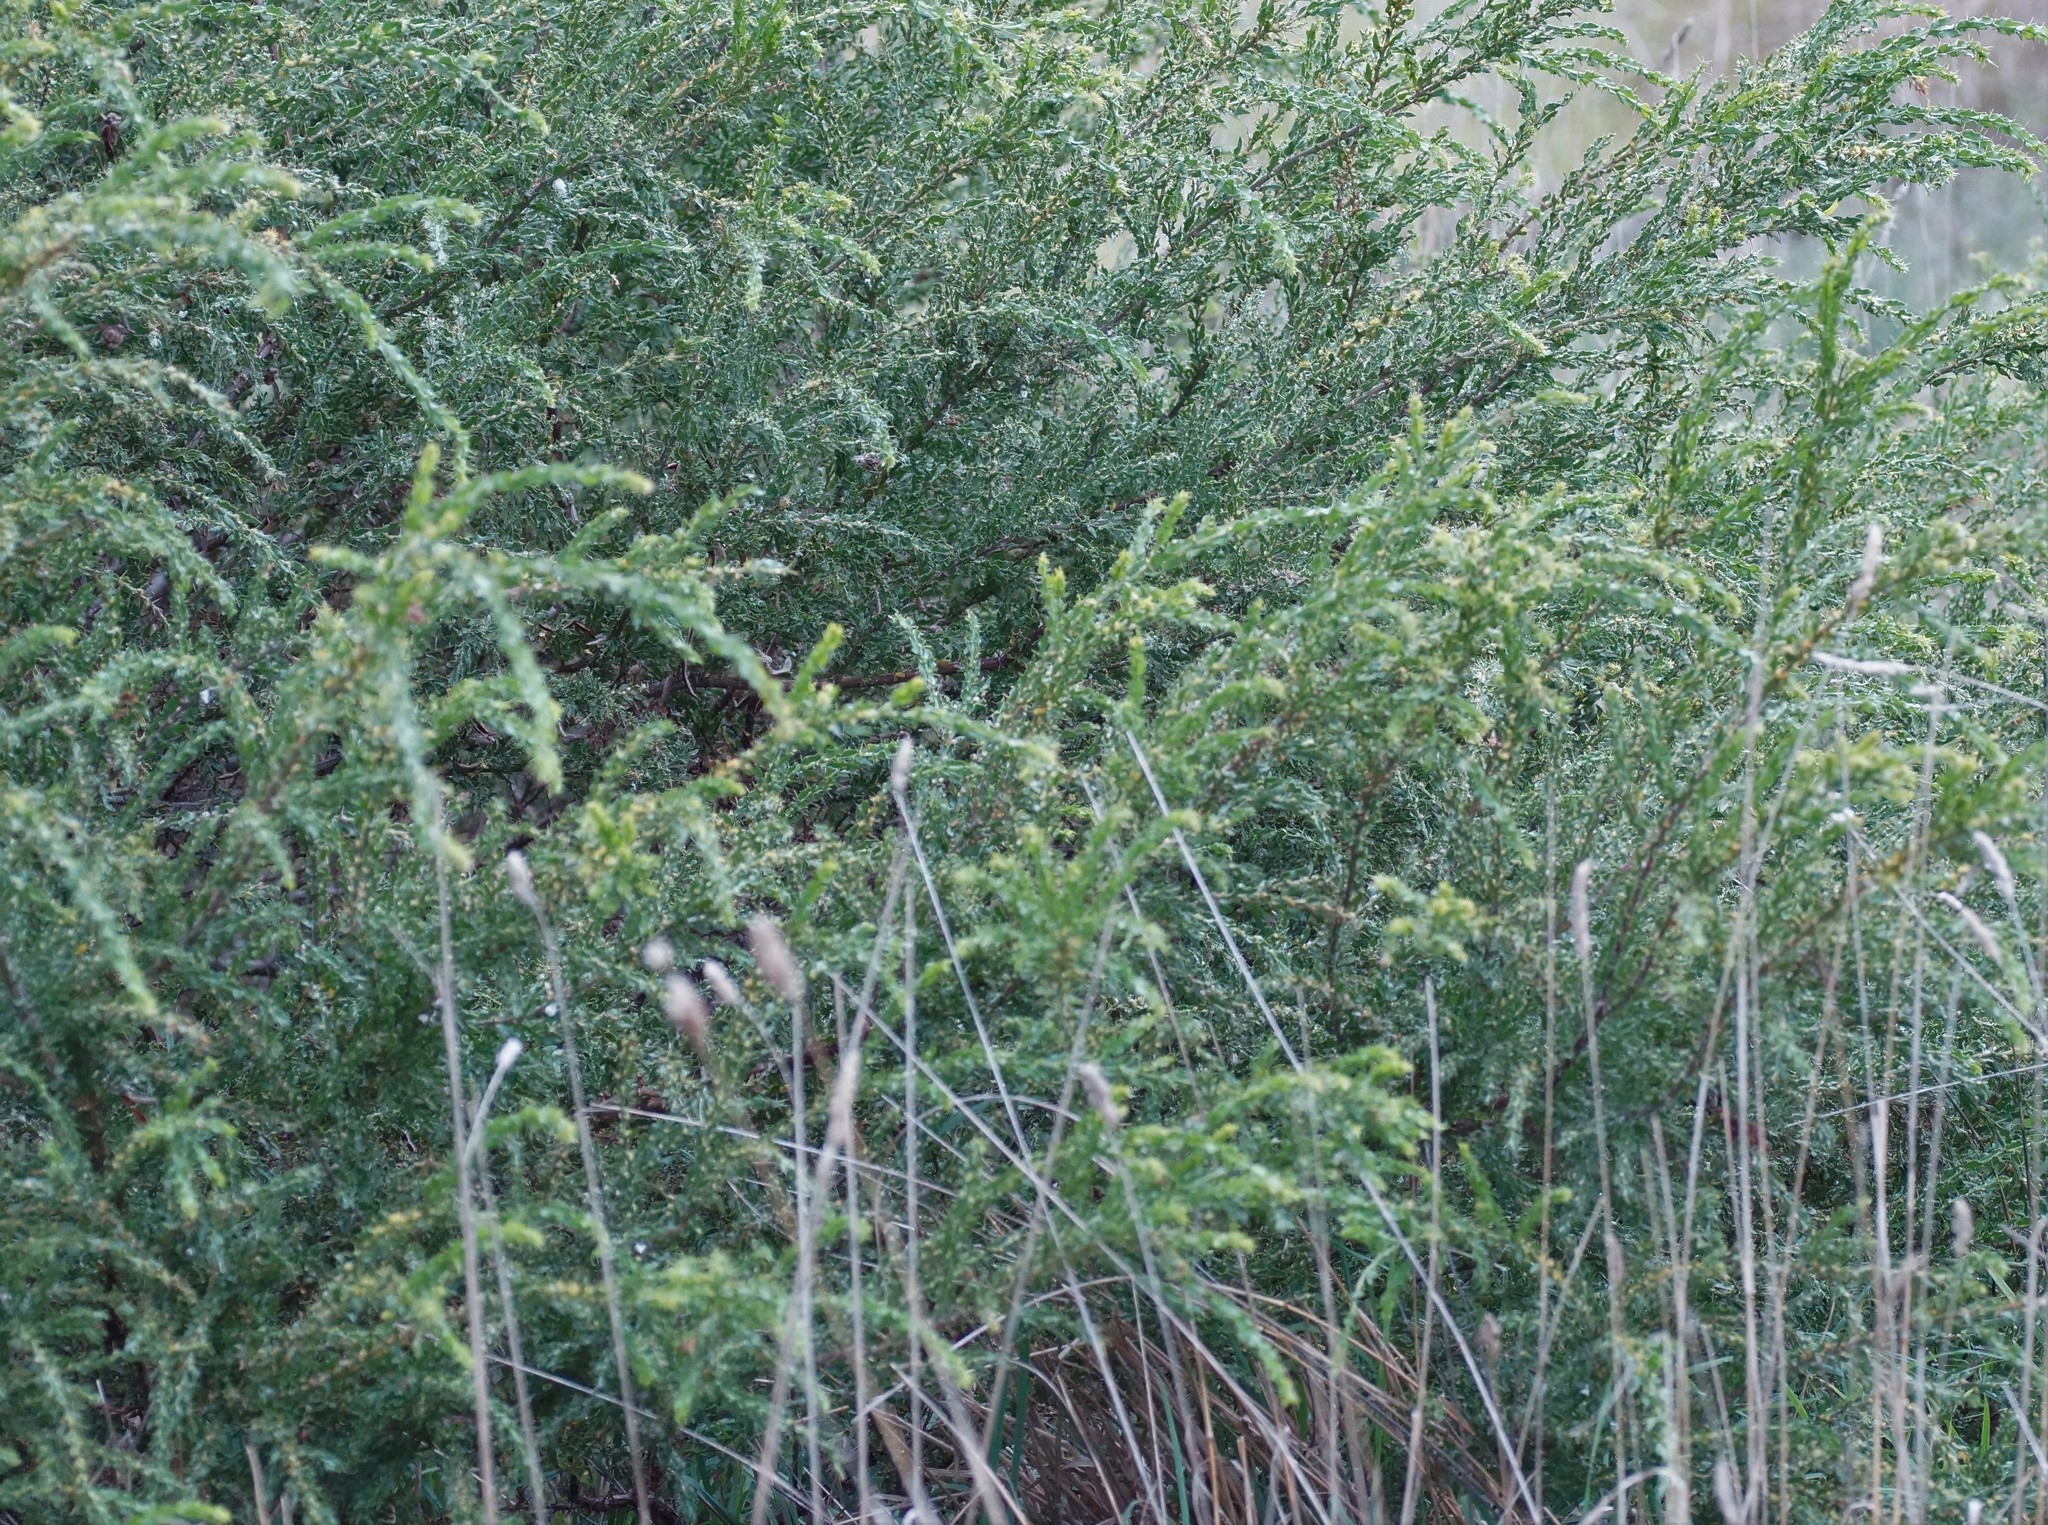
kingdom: Plantae
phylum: Tracheophyta
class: Magnoliopsida
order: Fabales
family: Fabaceae
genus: Acacia
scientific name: Acacia paradoxa
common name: Paradox acacia
